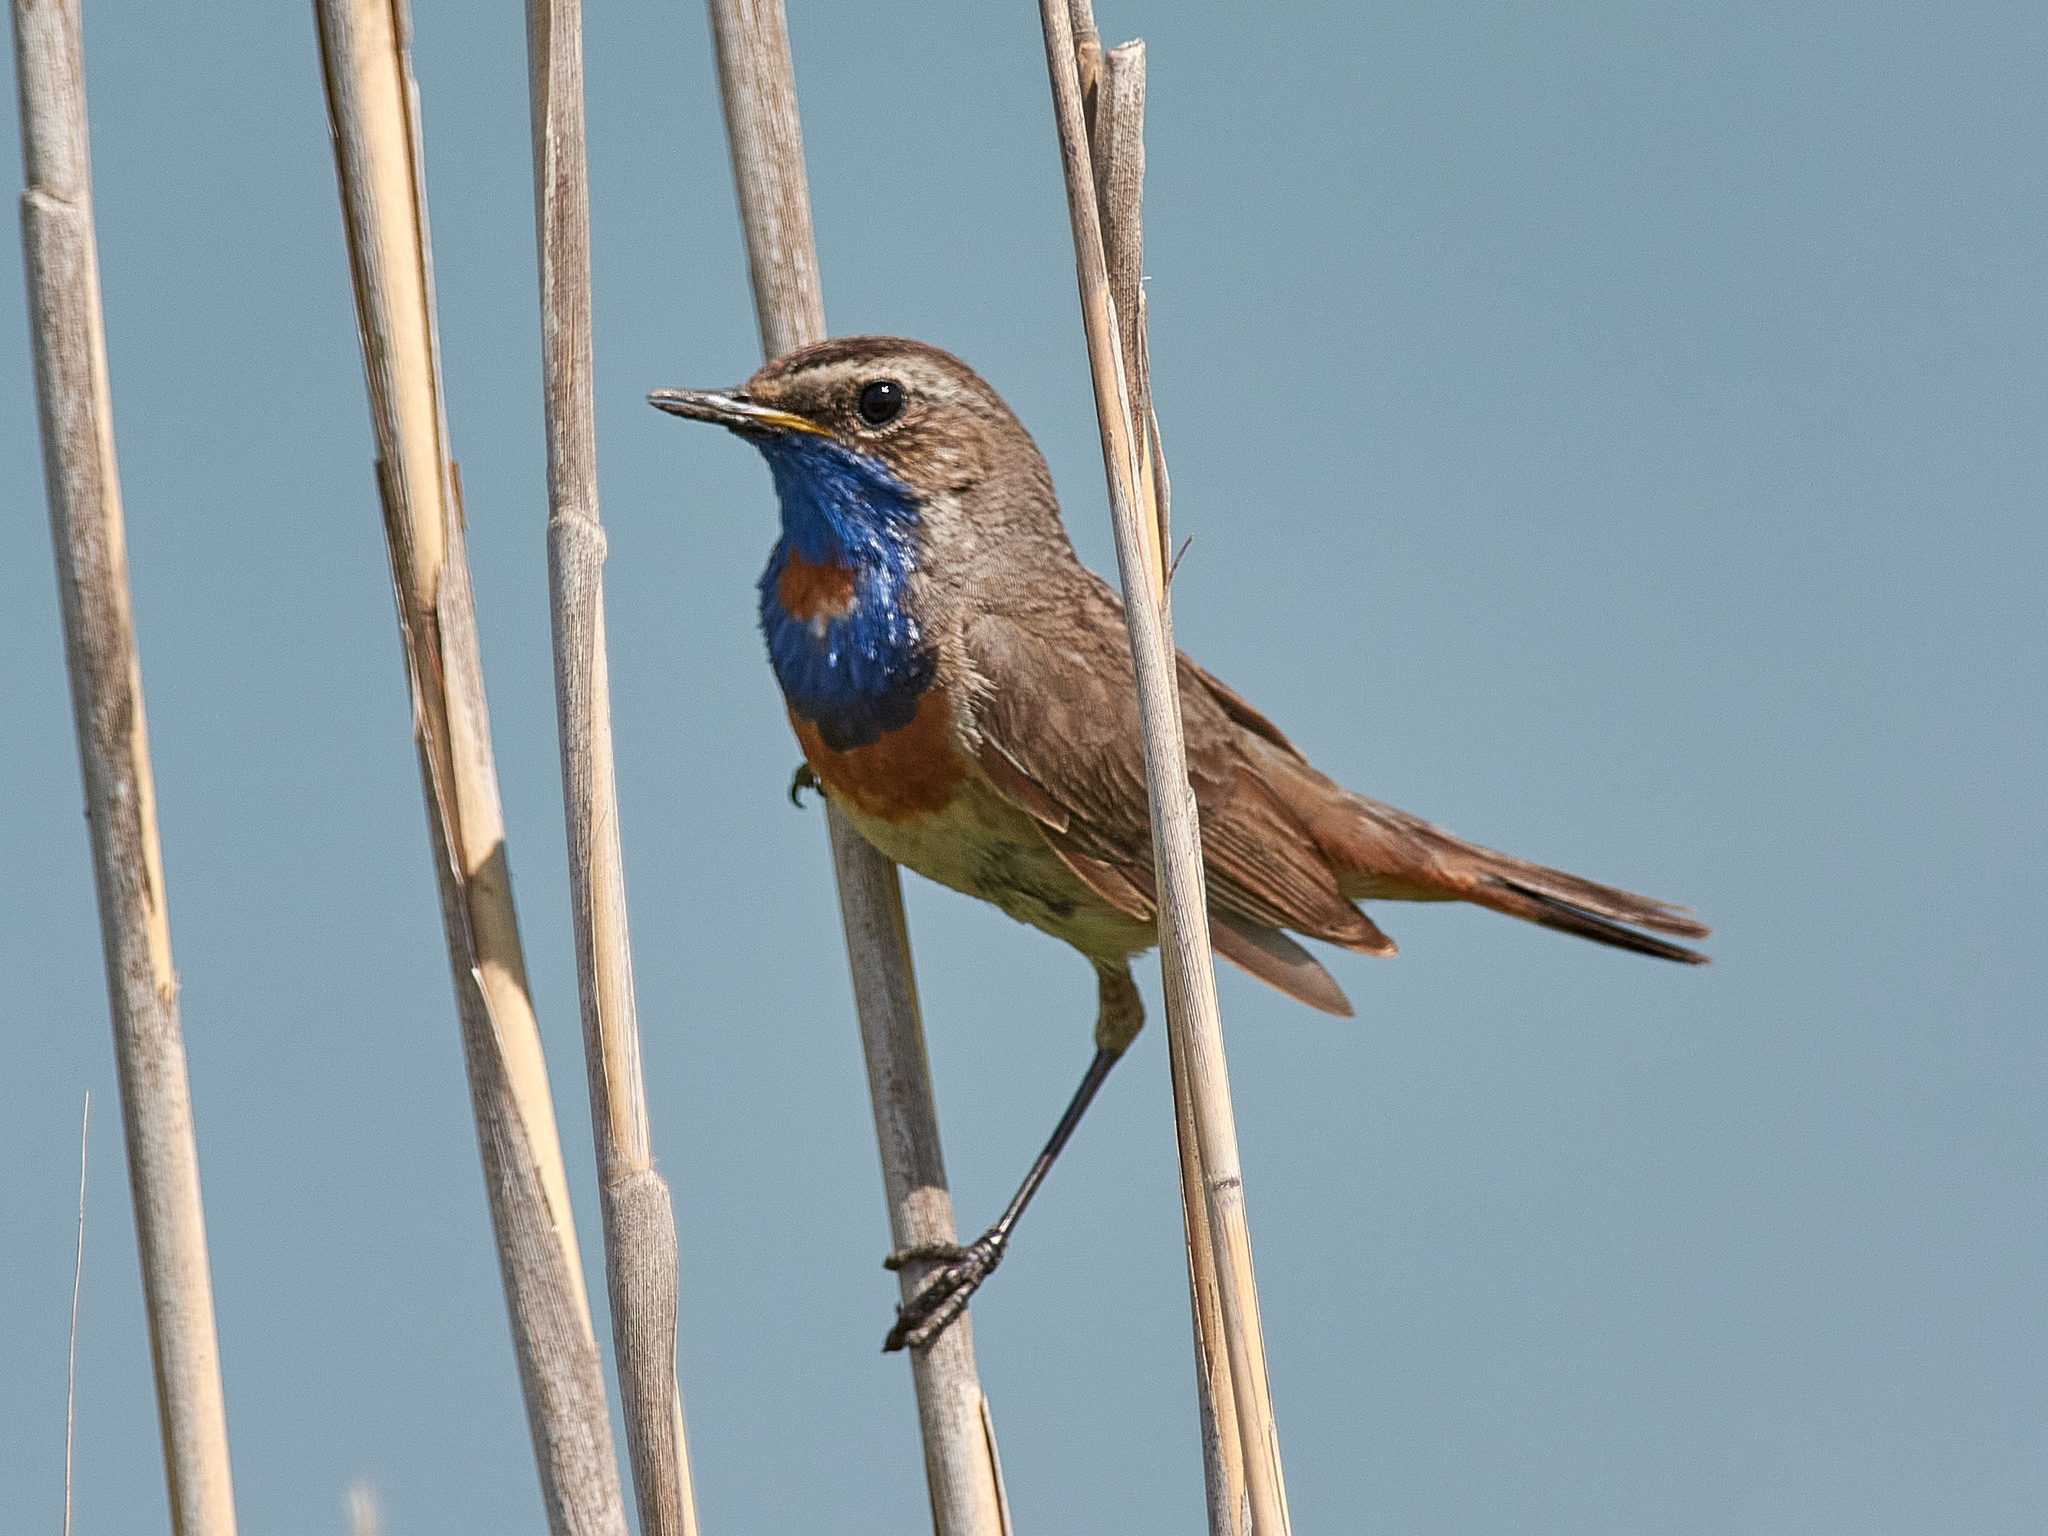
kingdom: Animalia
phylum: Chordata
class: Aves
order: Passeriformes
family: Muscicapidae
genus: Luscinia
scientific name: Luscinia svecica
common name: Bluethroat
